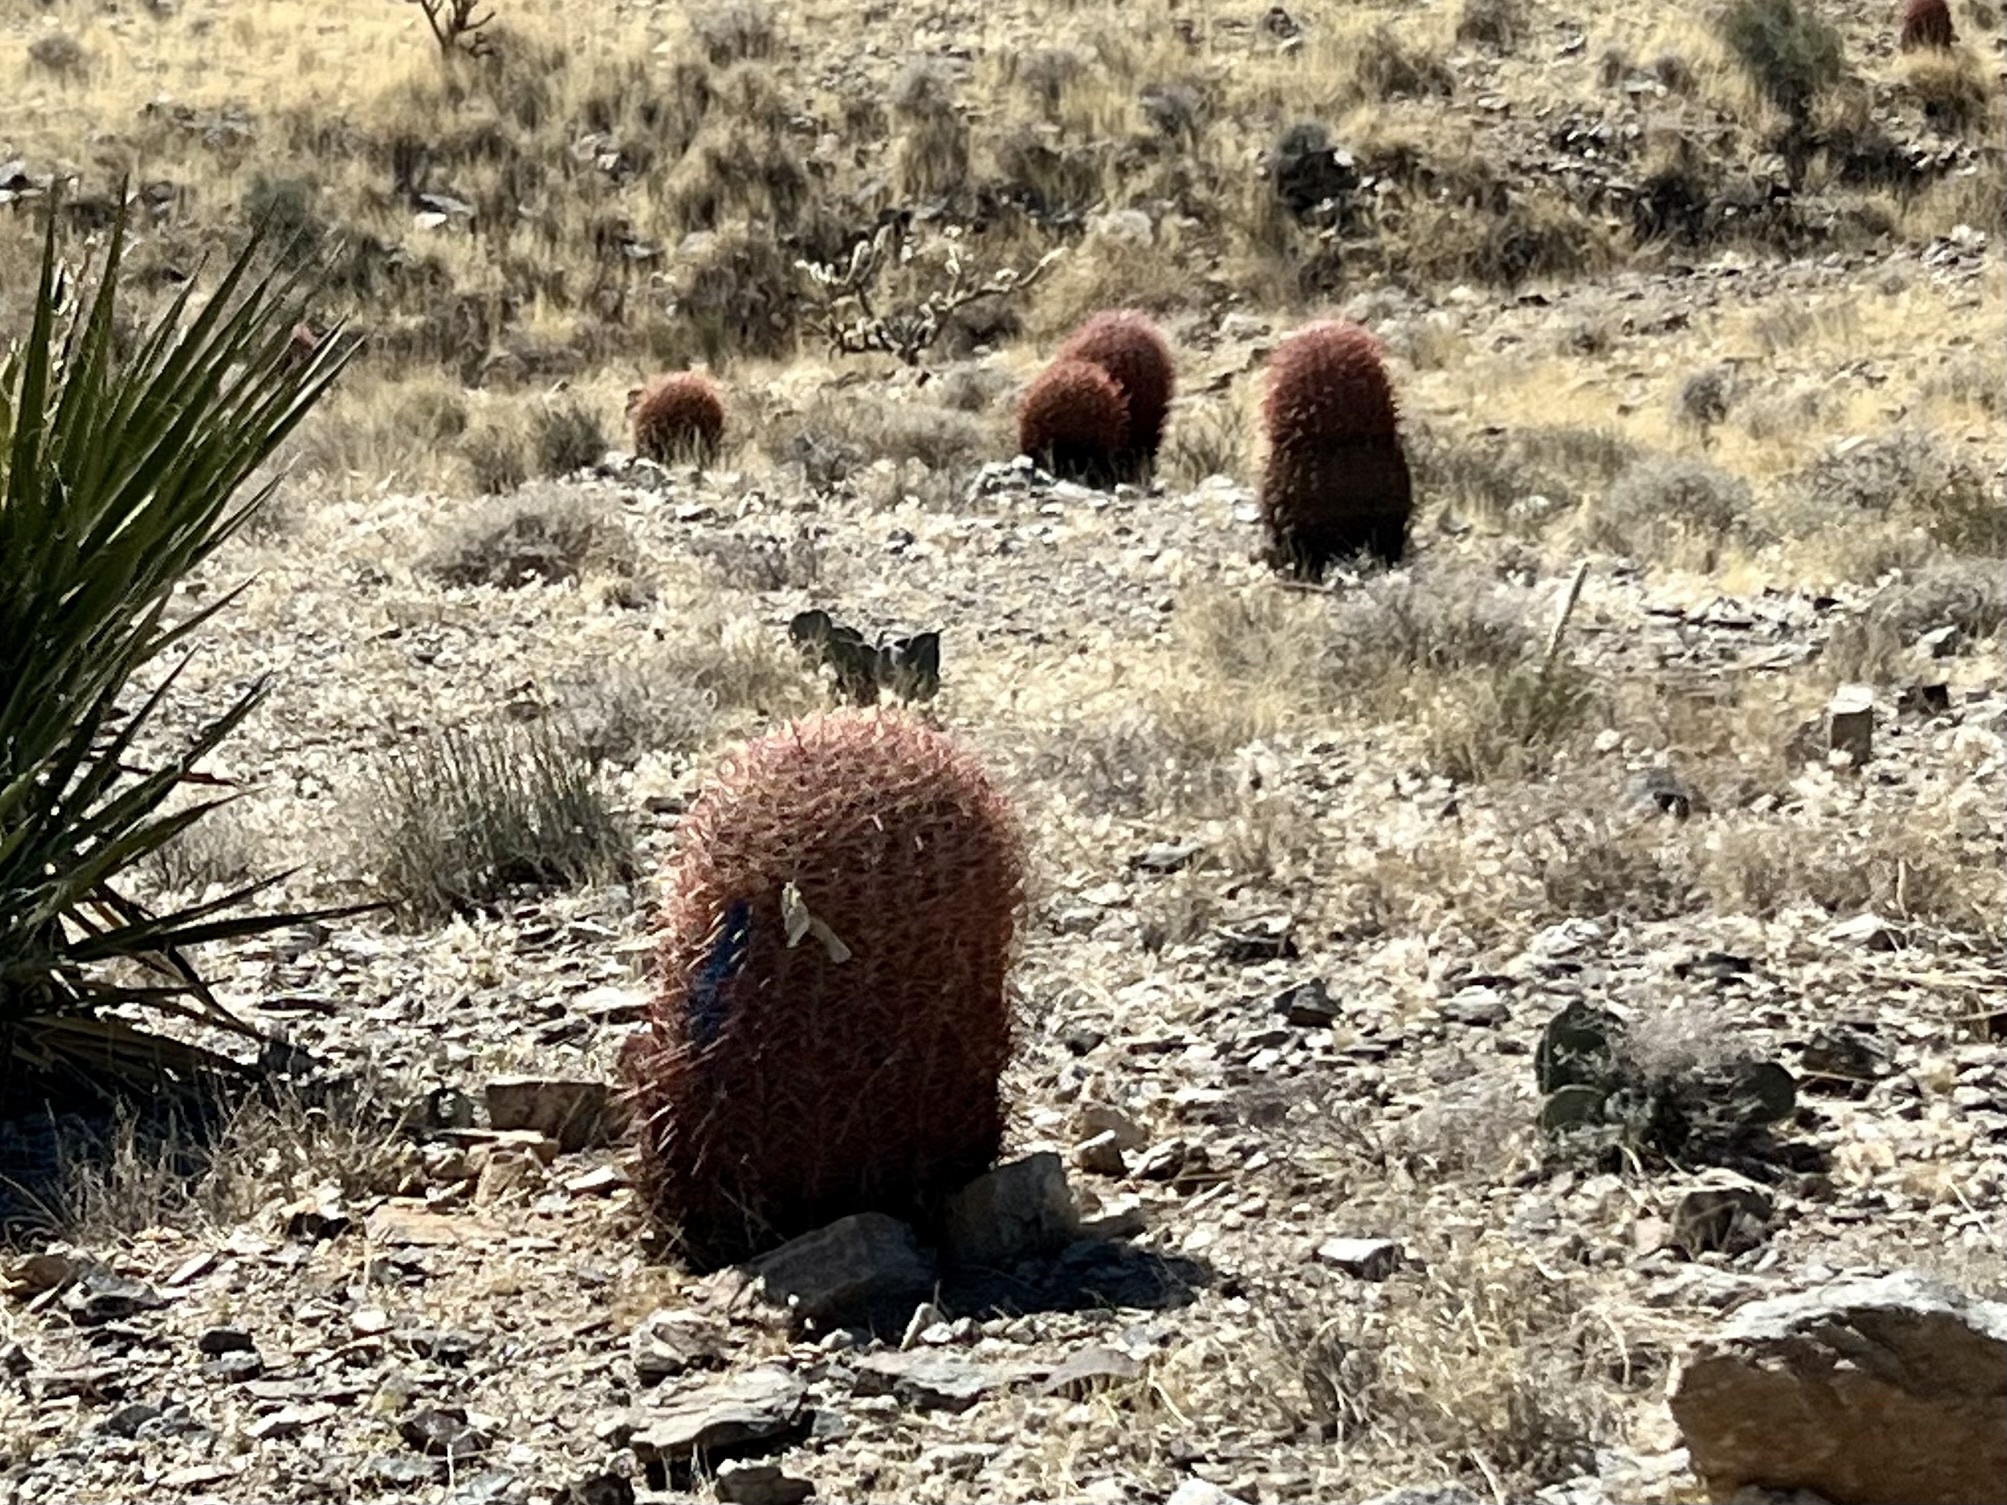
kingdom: Plantae
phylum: Tracheophyta
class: Magnoliopsida
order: Caryophyllales
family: Cactaceae
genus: Ferocactus
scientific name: Ferocactus cylindraceus
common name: California barrel cactus
